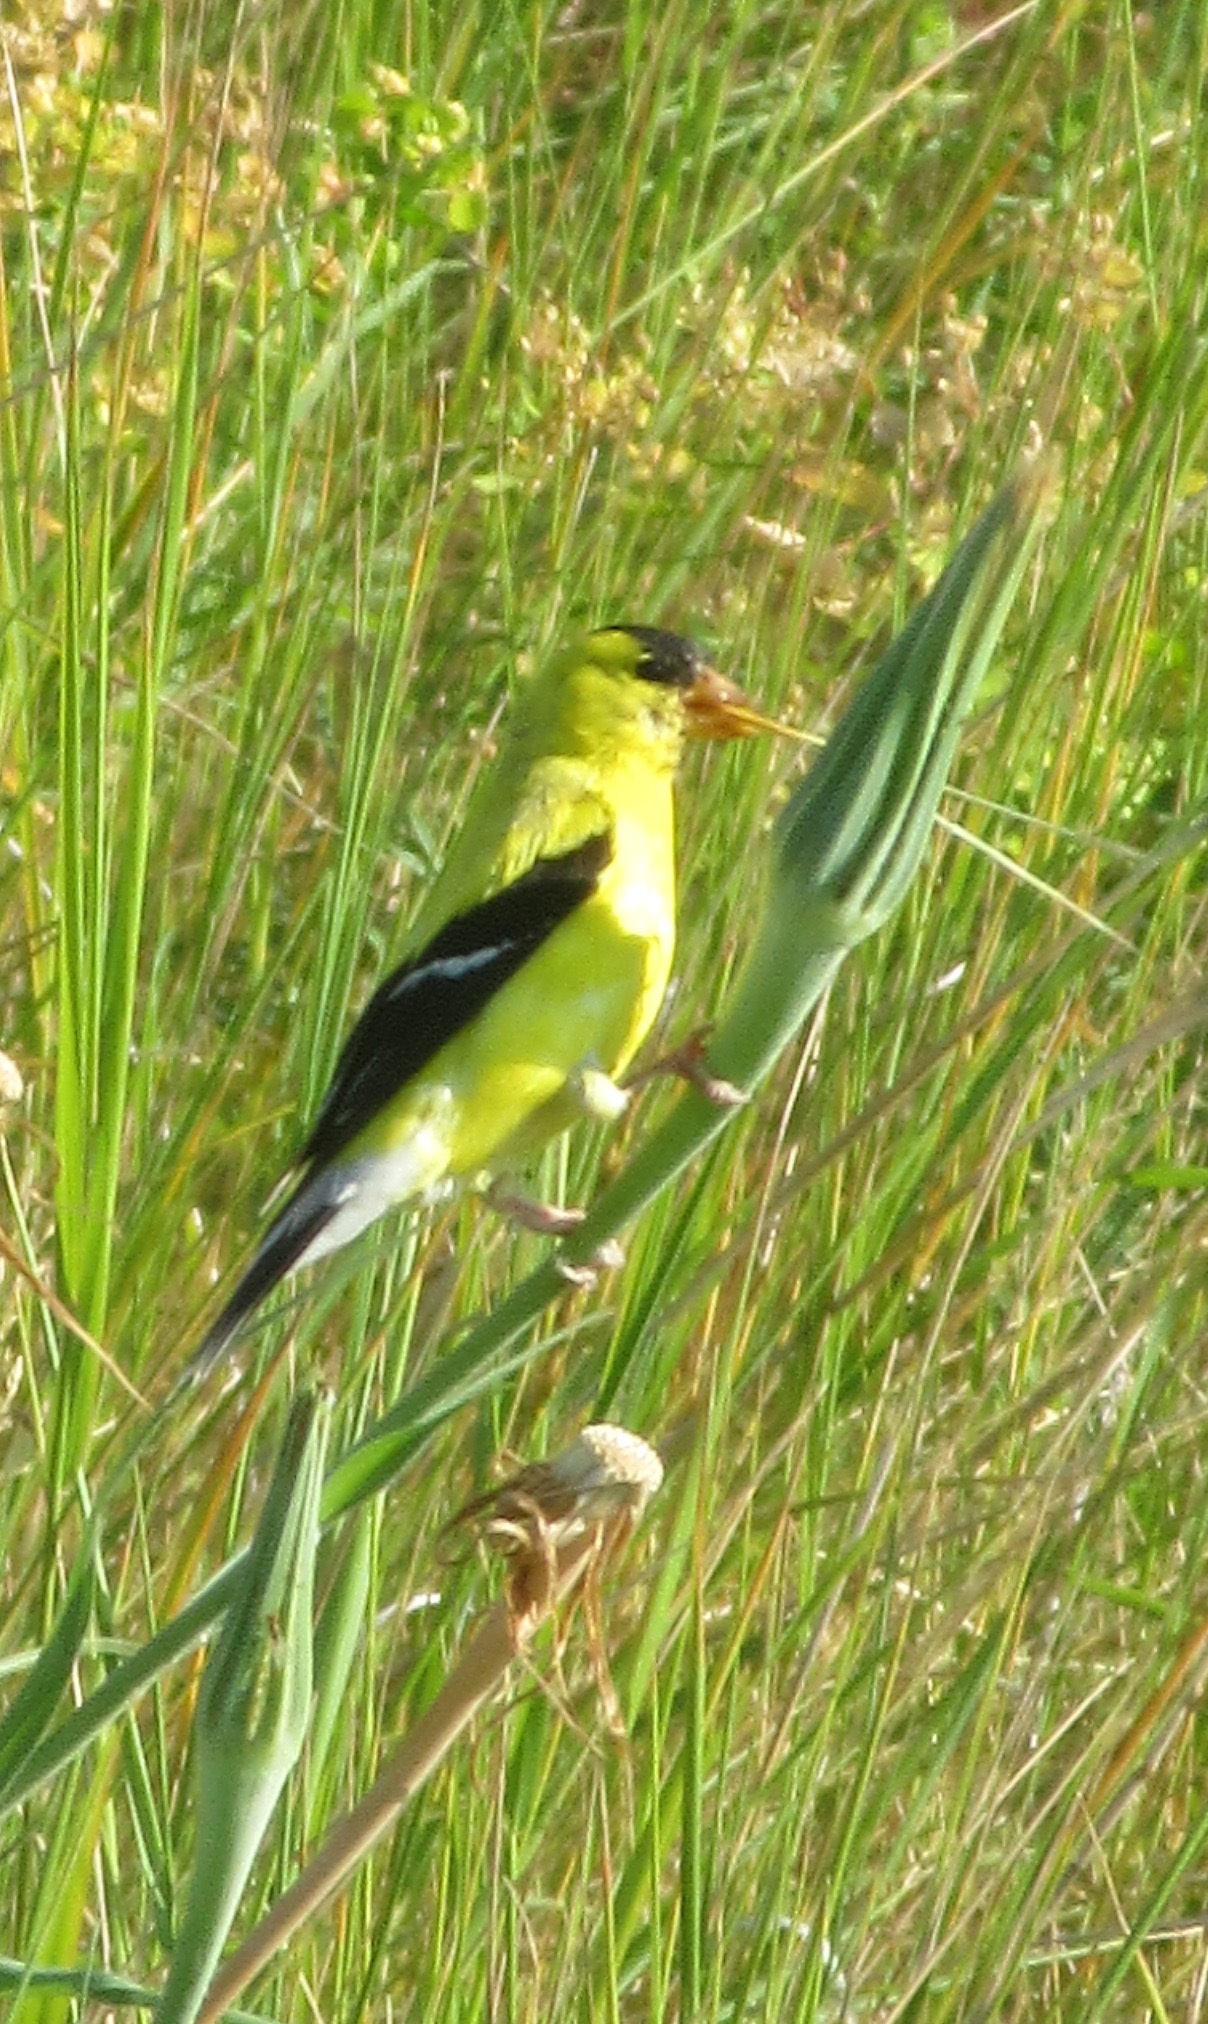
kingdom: Animalia
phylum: Chordata
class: Aves
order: Passeriformes
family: Fringillidae
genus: Spinus
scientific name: Spinus tristis
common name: American goldfinch
